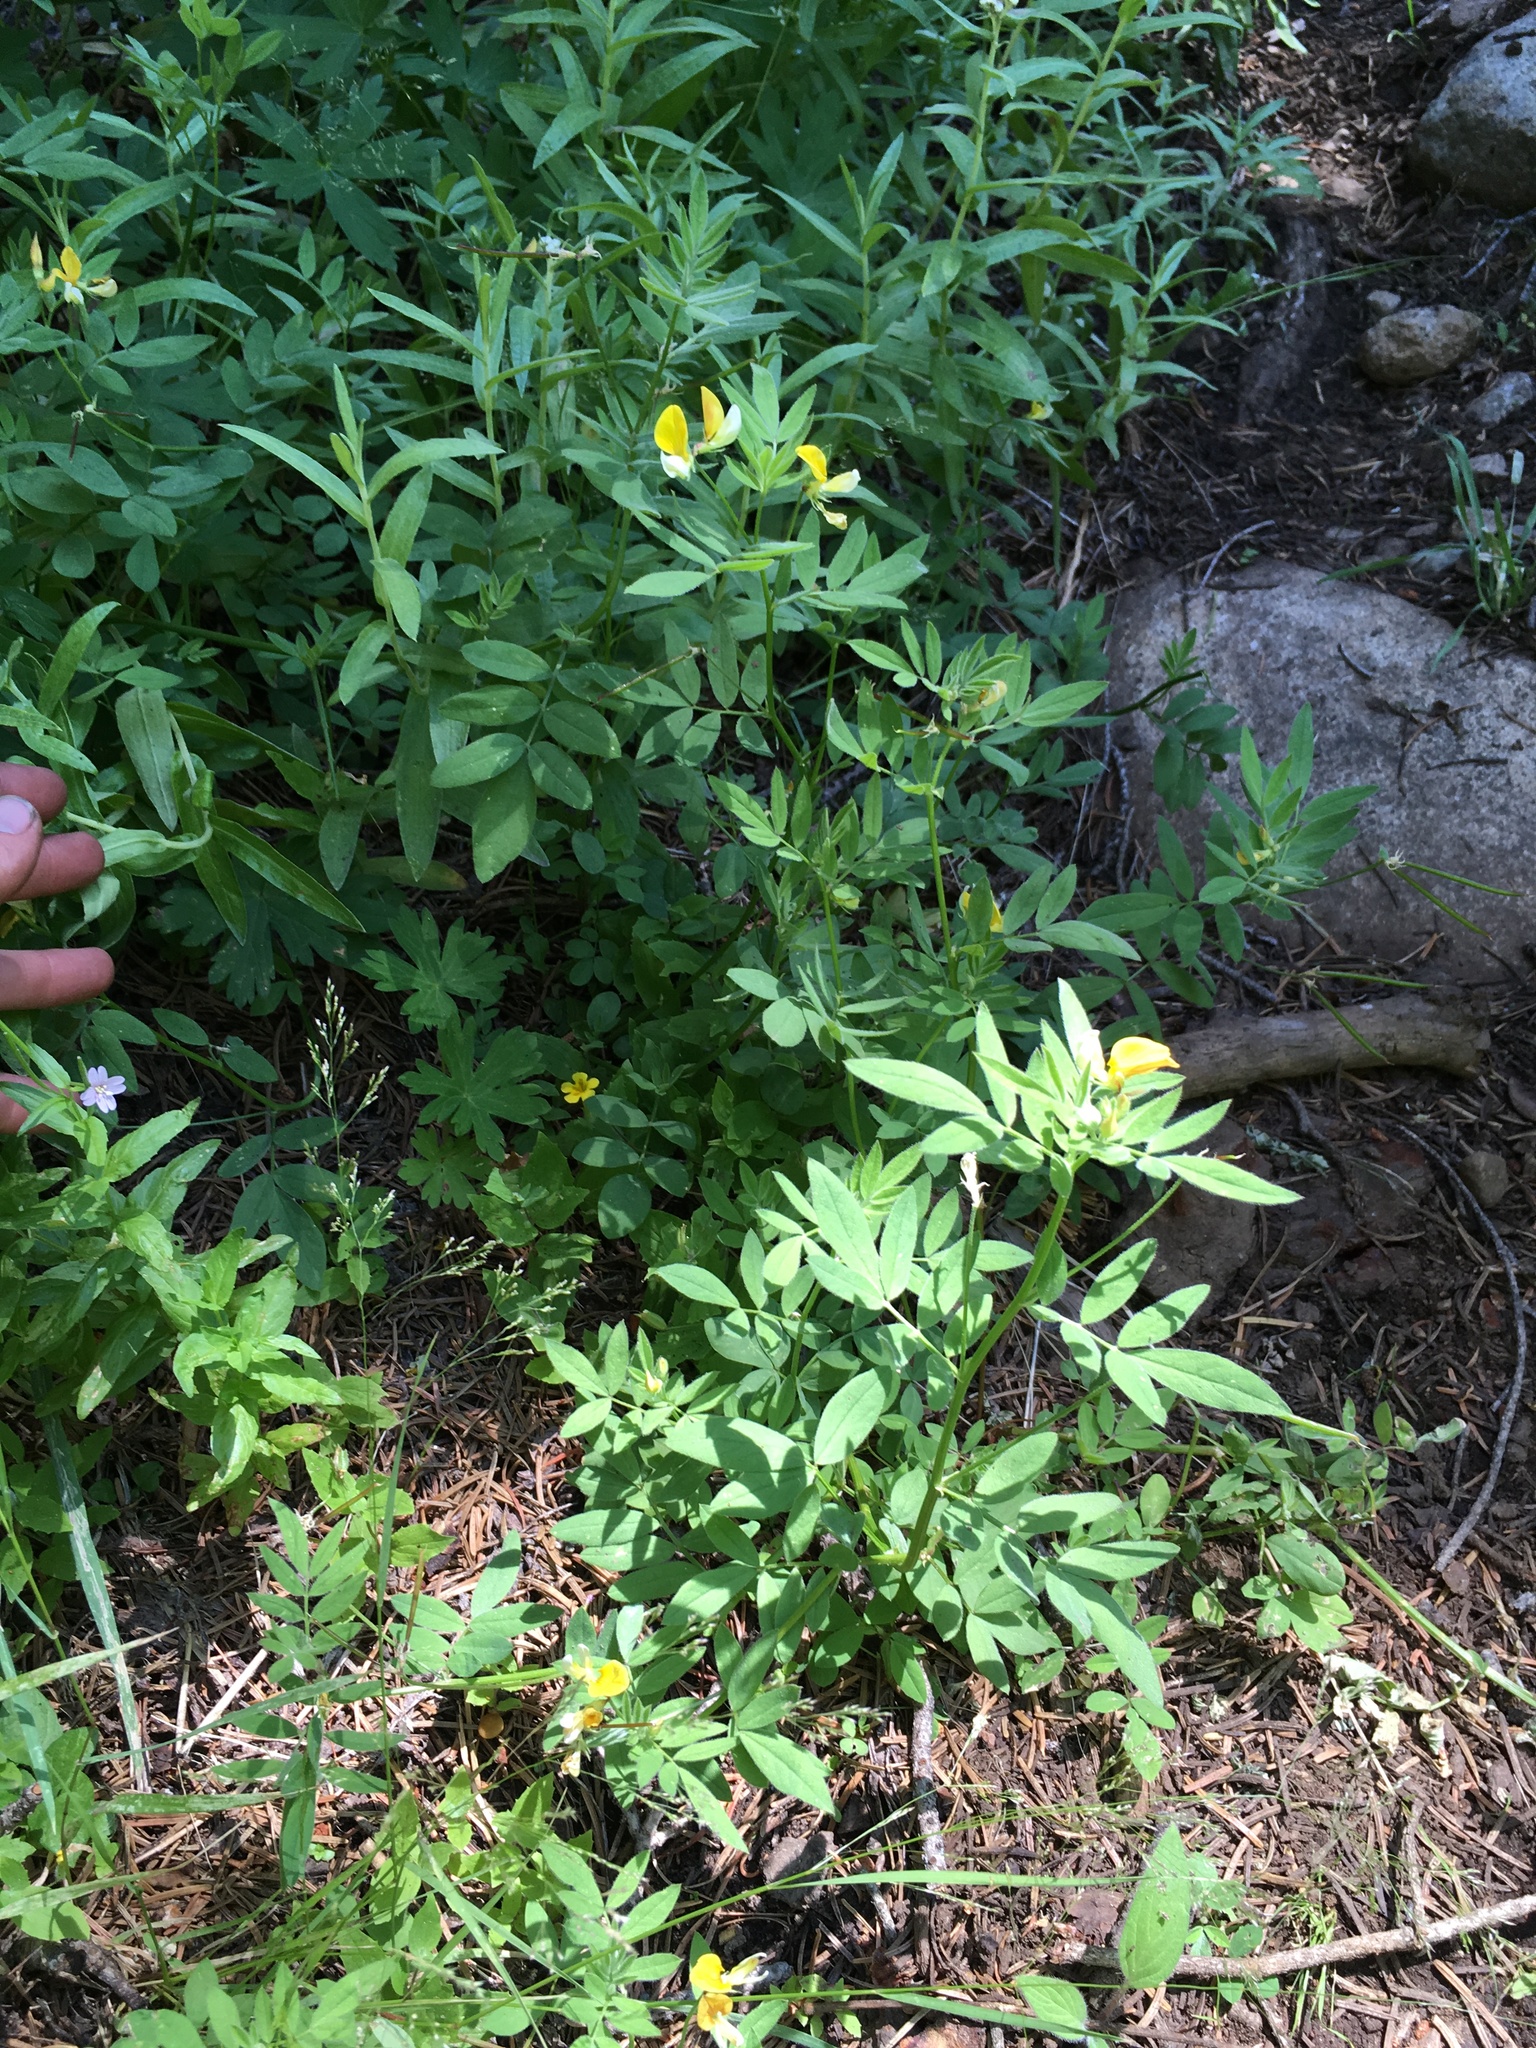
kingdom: Plantae
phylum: Tracheophyta
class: Magnoliopsida
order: Fabales
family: Fabaceae
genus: Hosackia
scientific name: Hosackia oblongifolia
